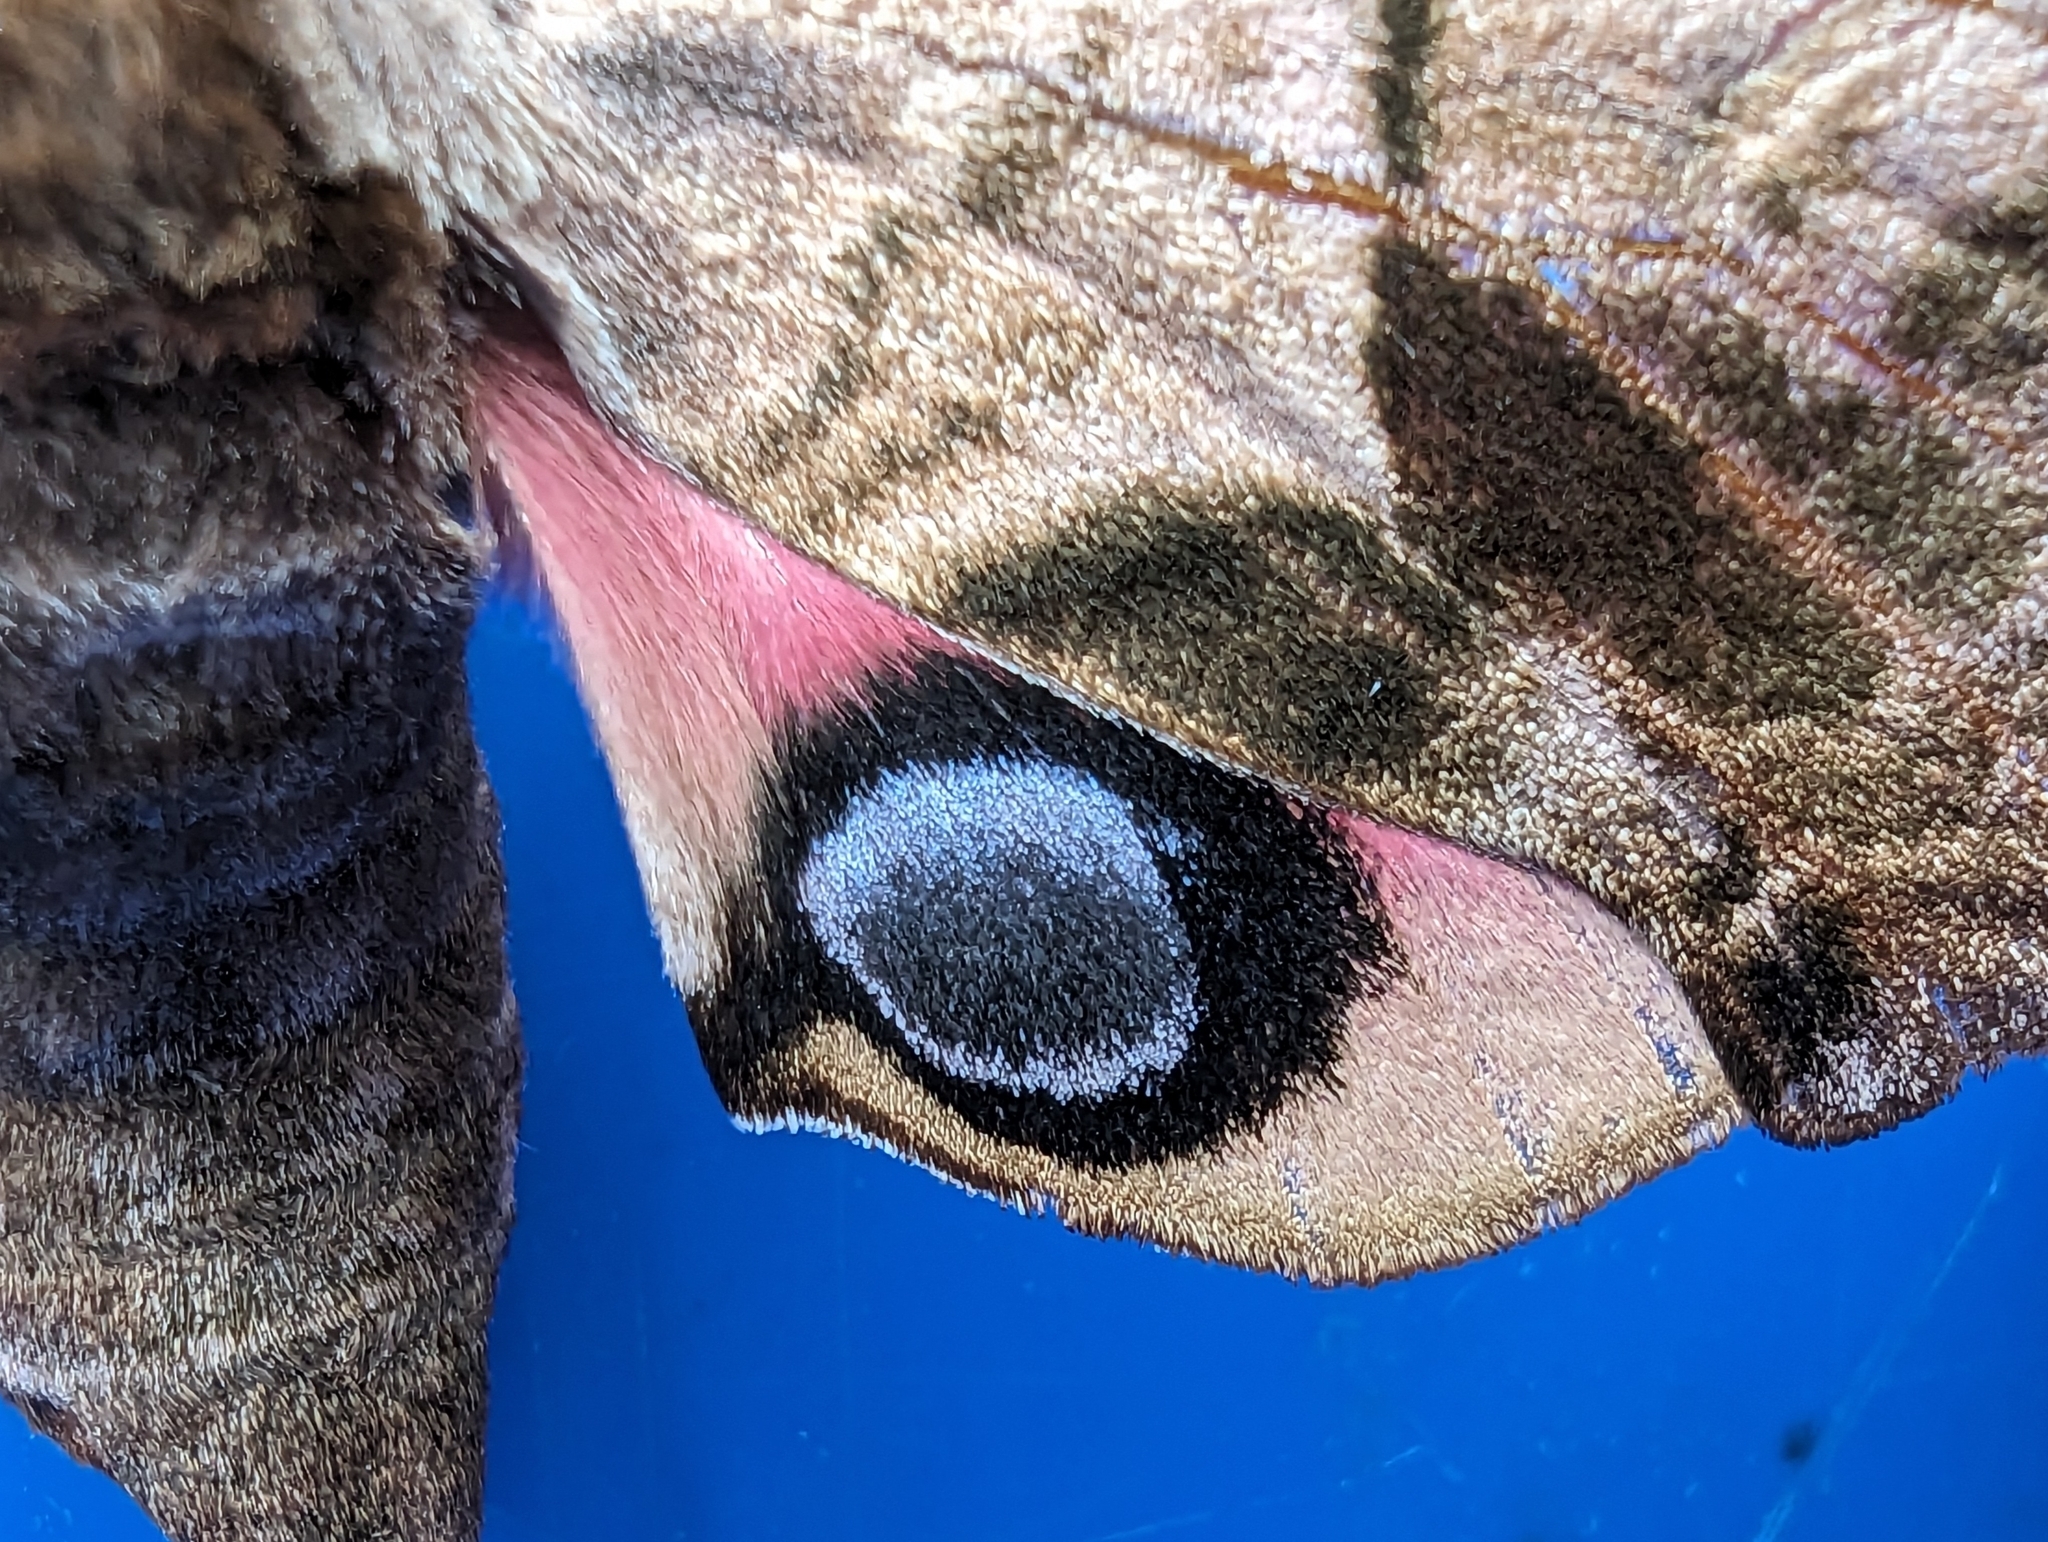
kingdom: Animalia
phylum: Arthropoda
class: Insecta
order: Lepidoptera
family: Sphingidae
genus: Smerinthus
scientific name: Smerinthus ocellata
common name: Eyed hawk-moth
